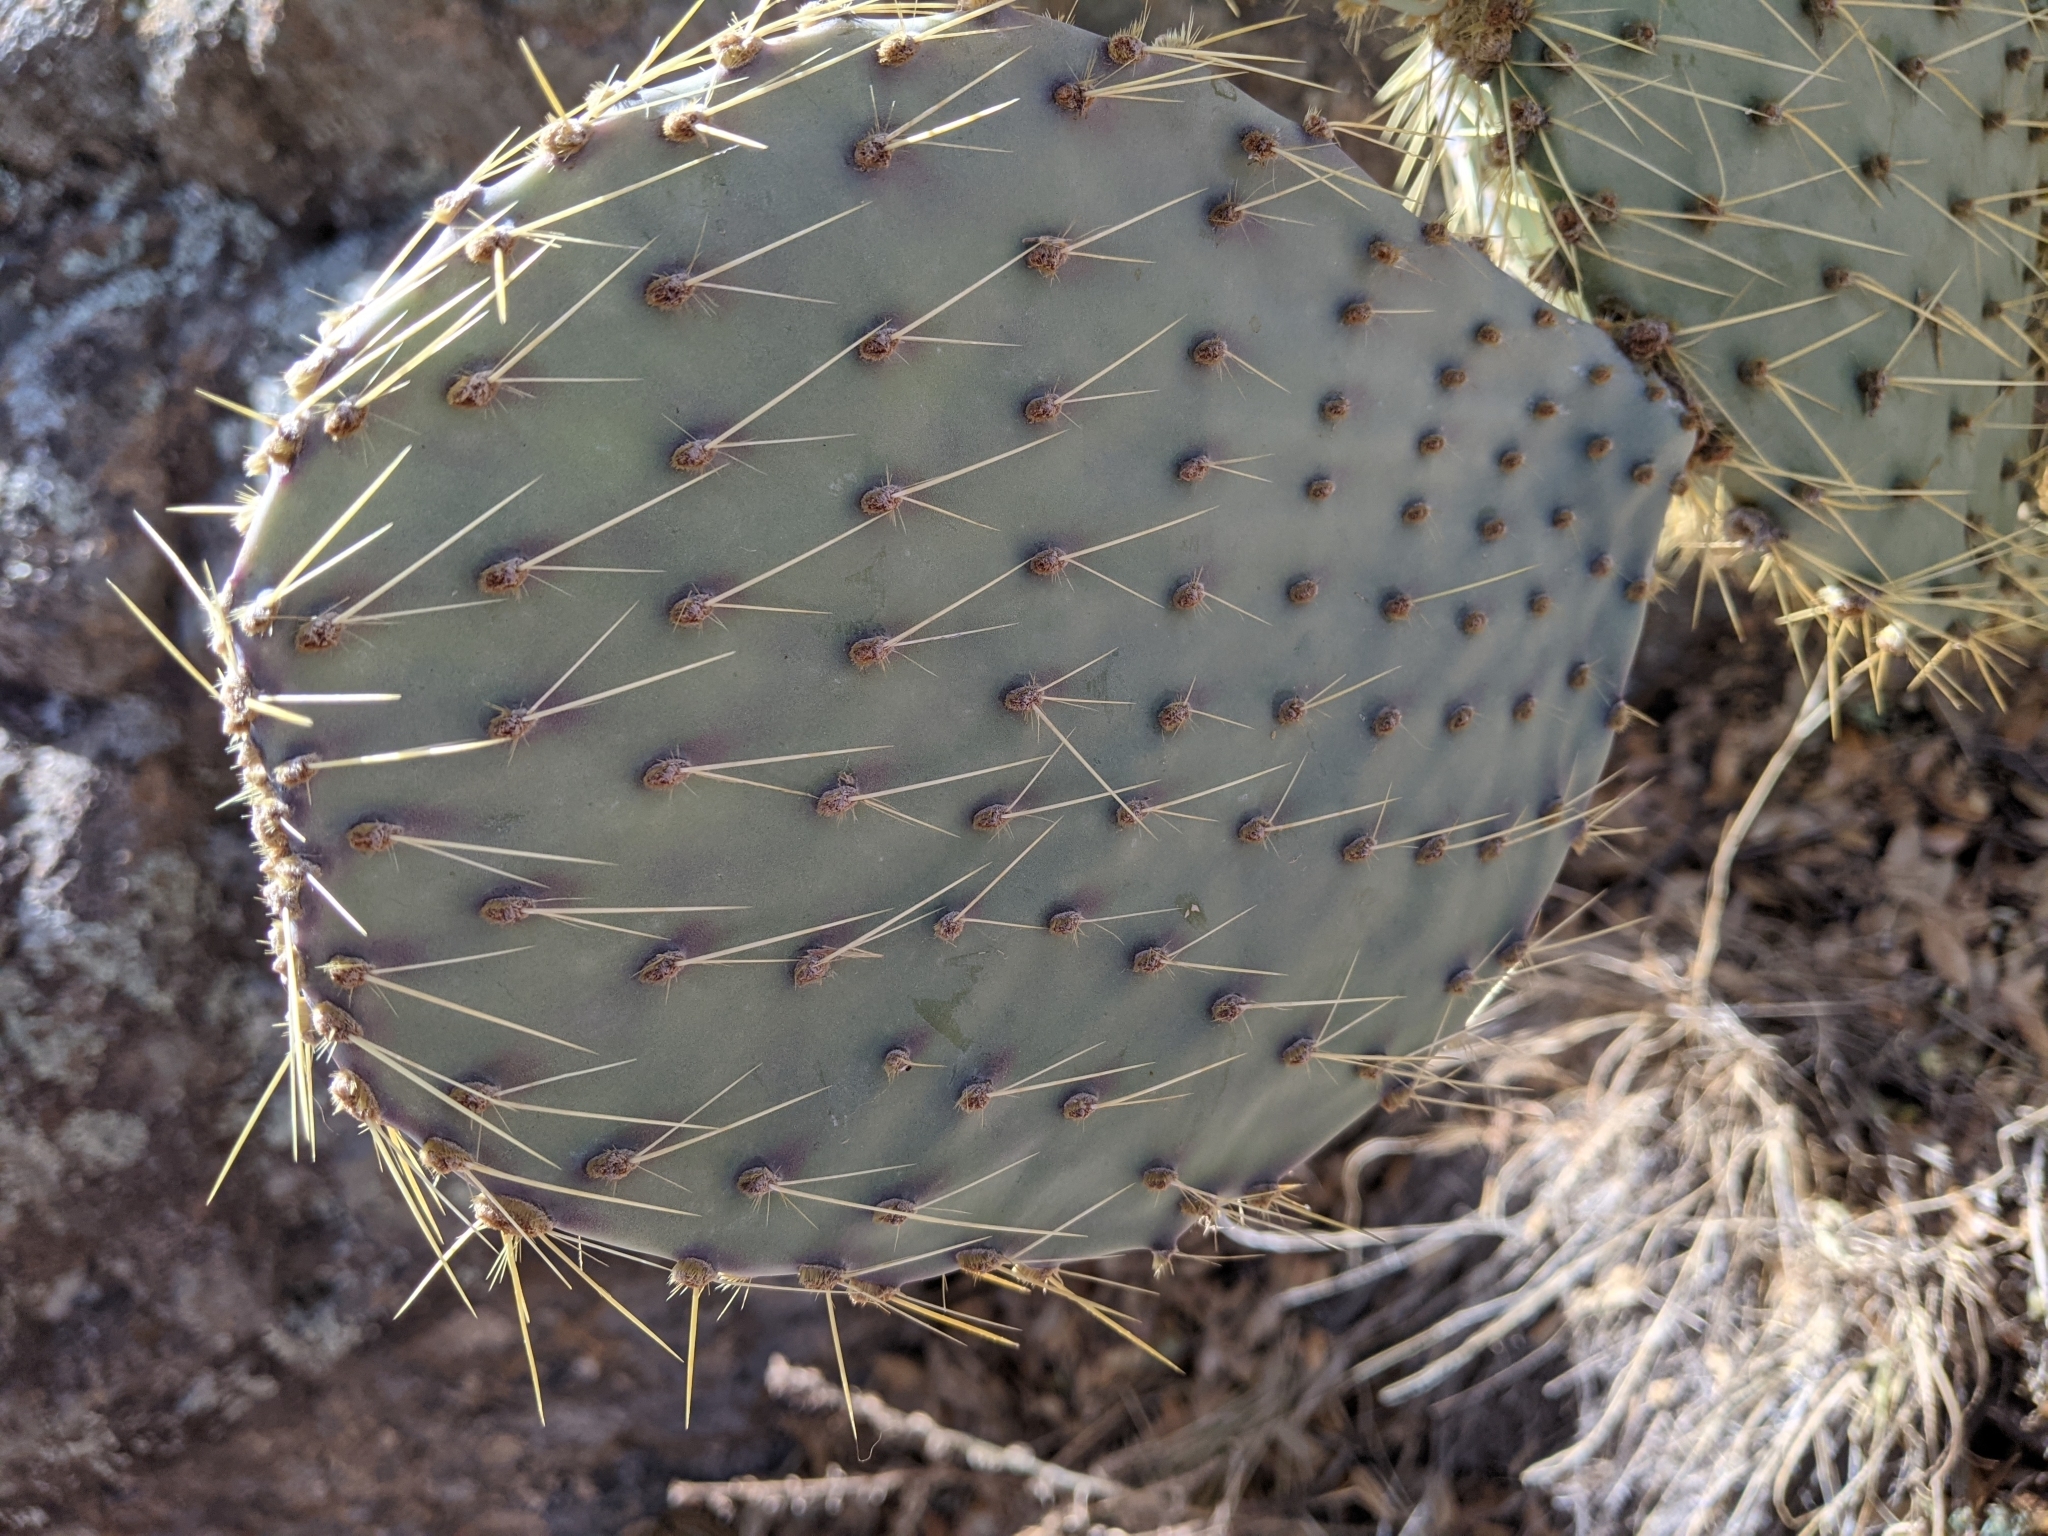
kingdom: Plantae
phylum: Tracheophyta
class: Magnoliopsida
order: Caryophyllales
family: Cactaceae
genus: Opuntia
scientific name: Opuntia chlorotica
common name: Dollar-joint prickly-pear
